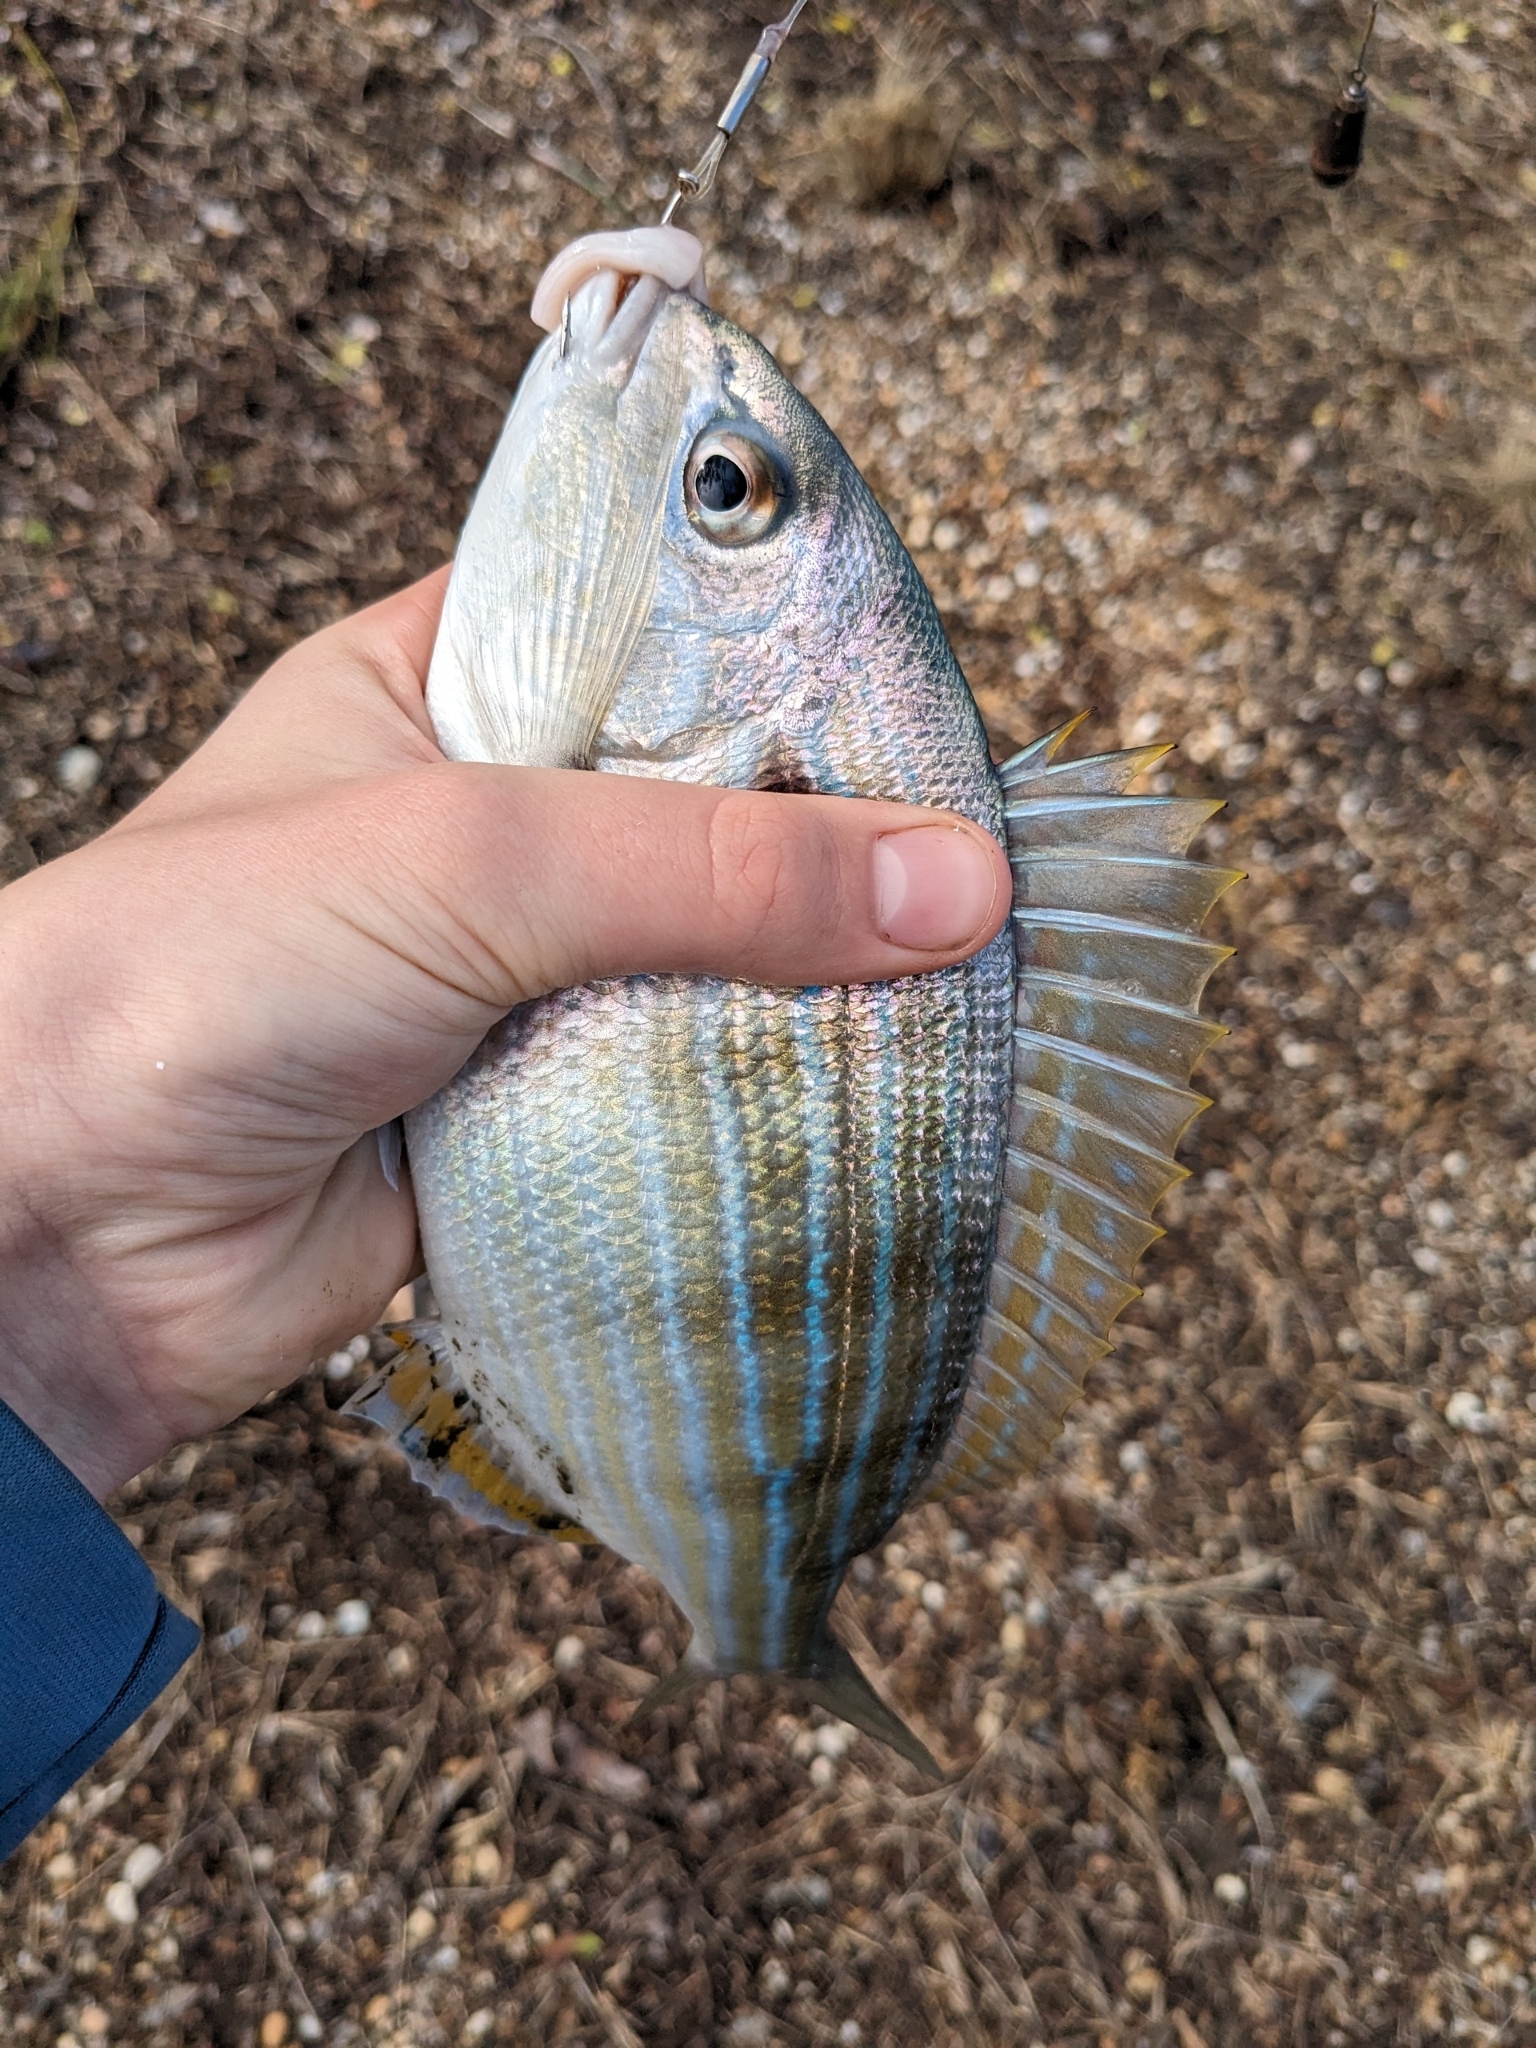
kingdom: Animalia
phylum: Chordata
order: Perciformes
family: Sparidae
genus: Lagodon
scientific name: Lagodon rhomboides
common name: Pinfish
